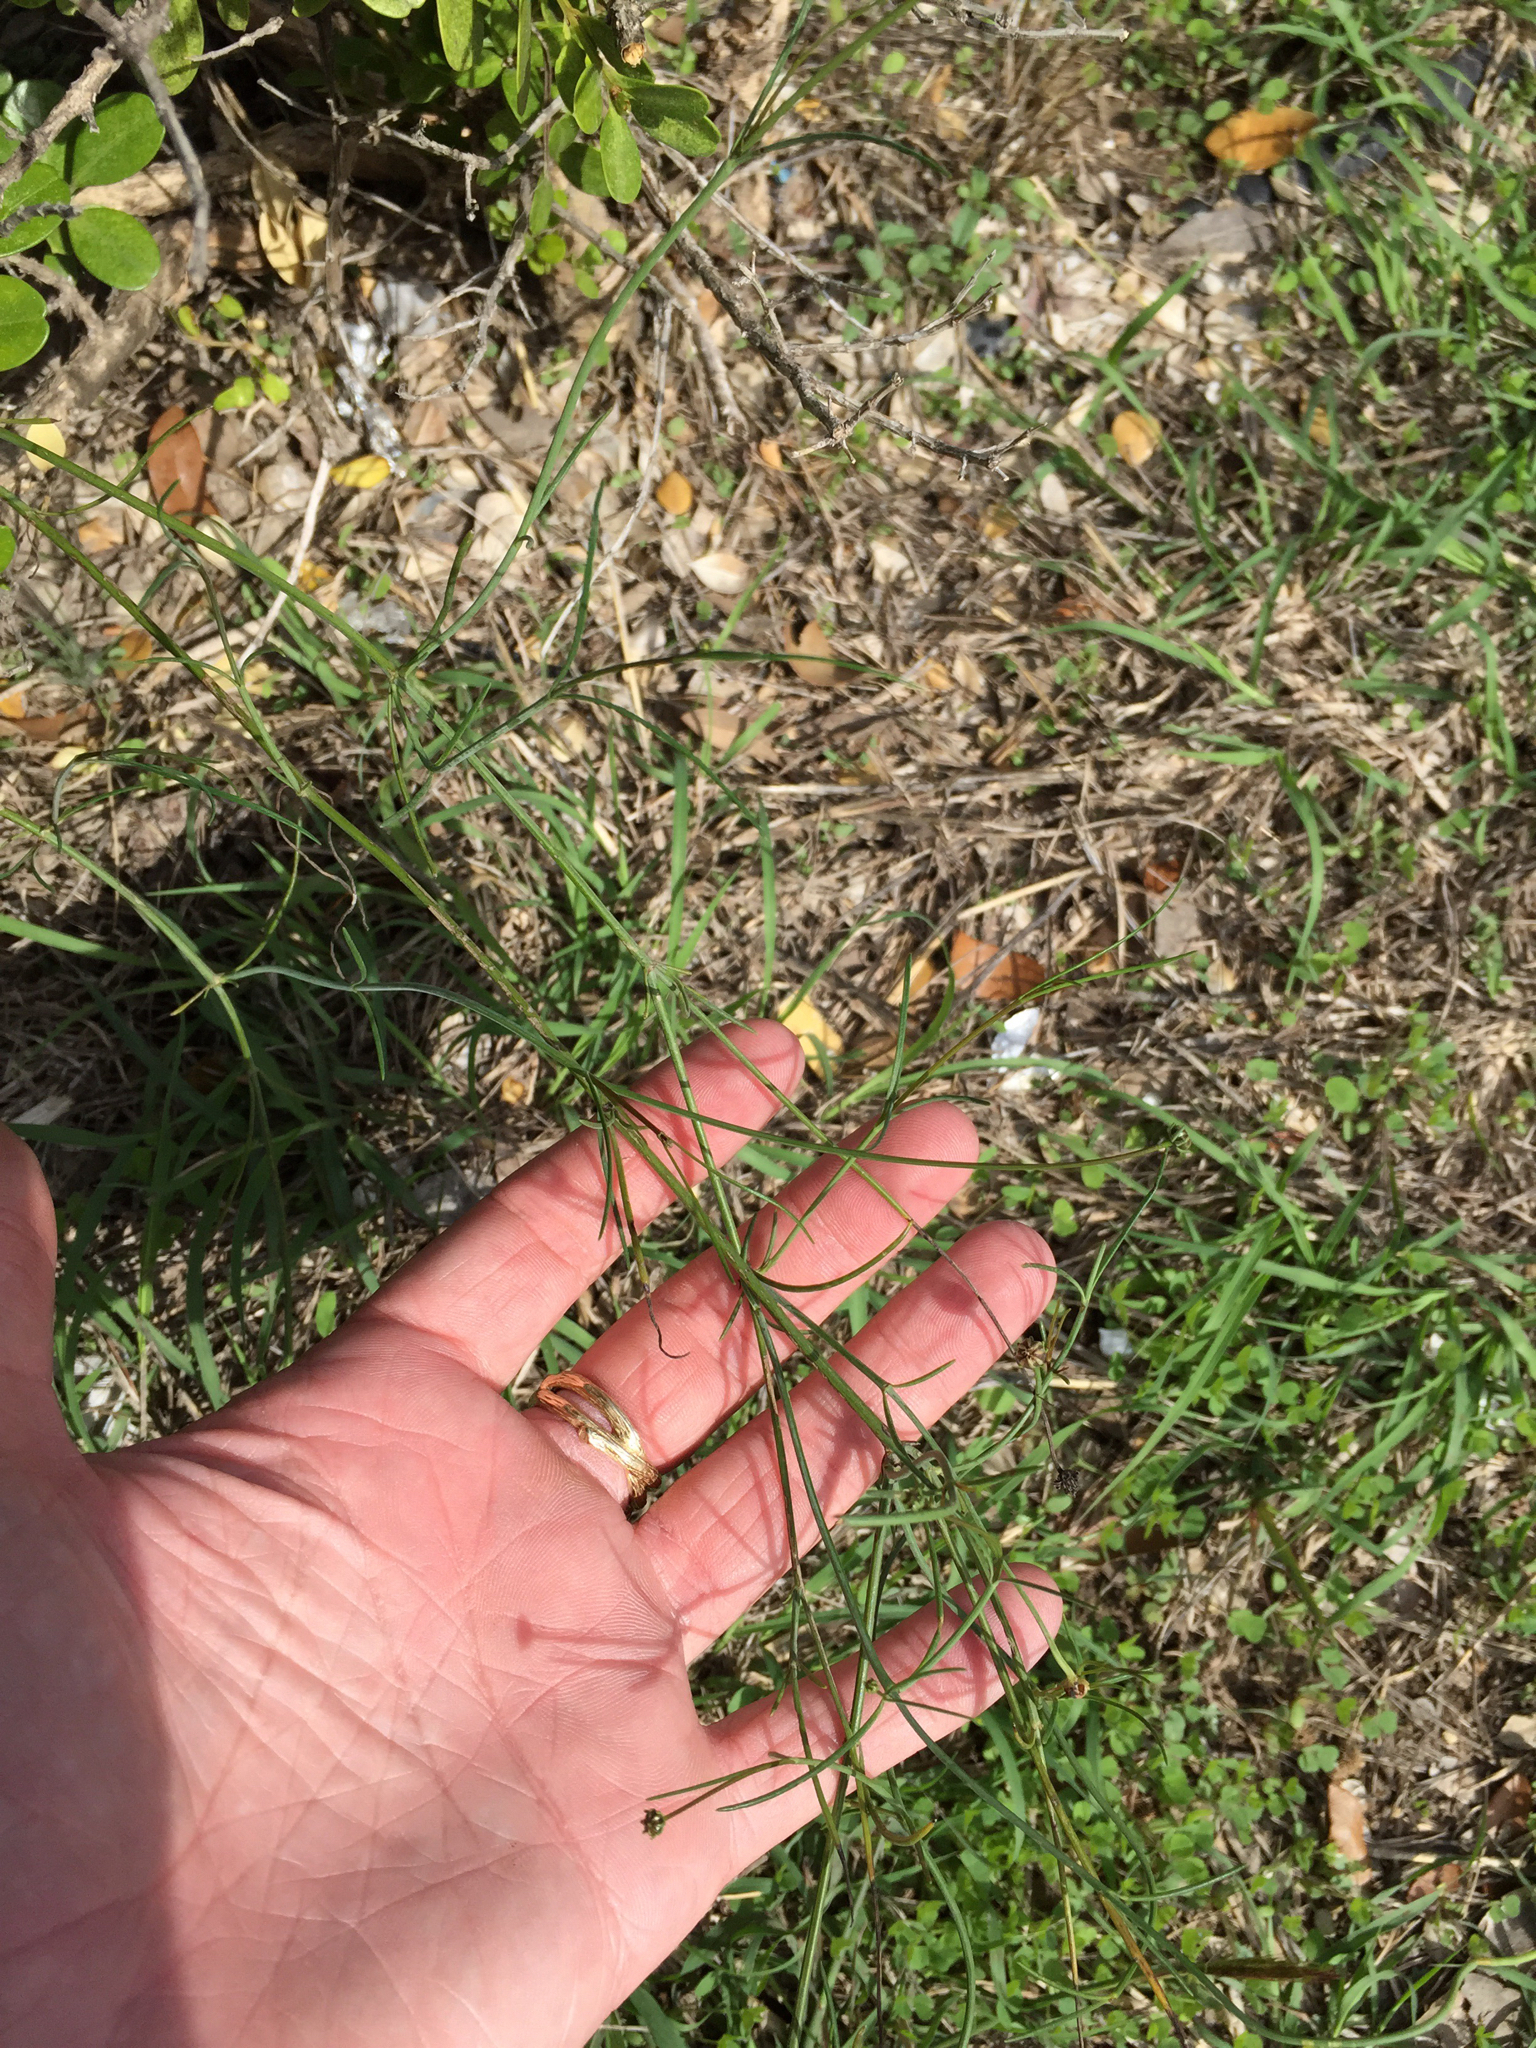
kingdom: Plantae
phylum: Tracheophyta
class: Magnoliopsida
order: Asterales
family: Asteraceae
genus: Thelesperma
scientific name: Thelesperma simplicifolium
